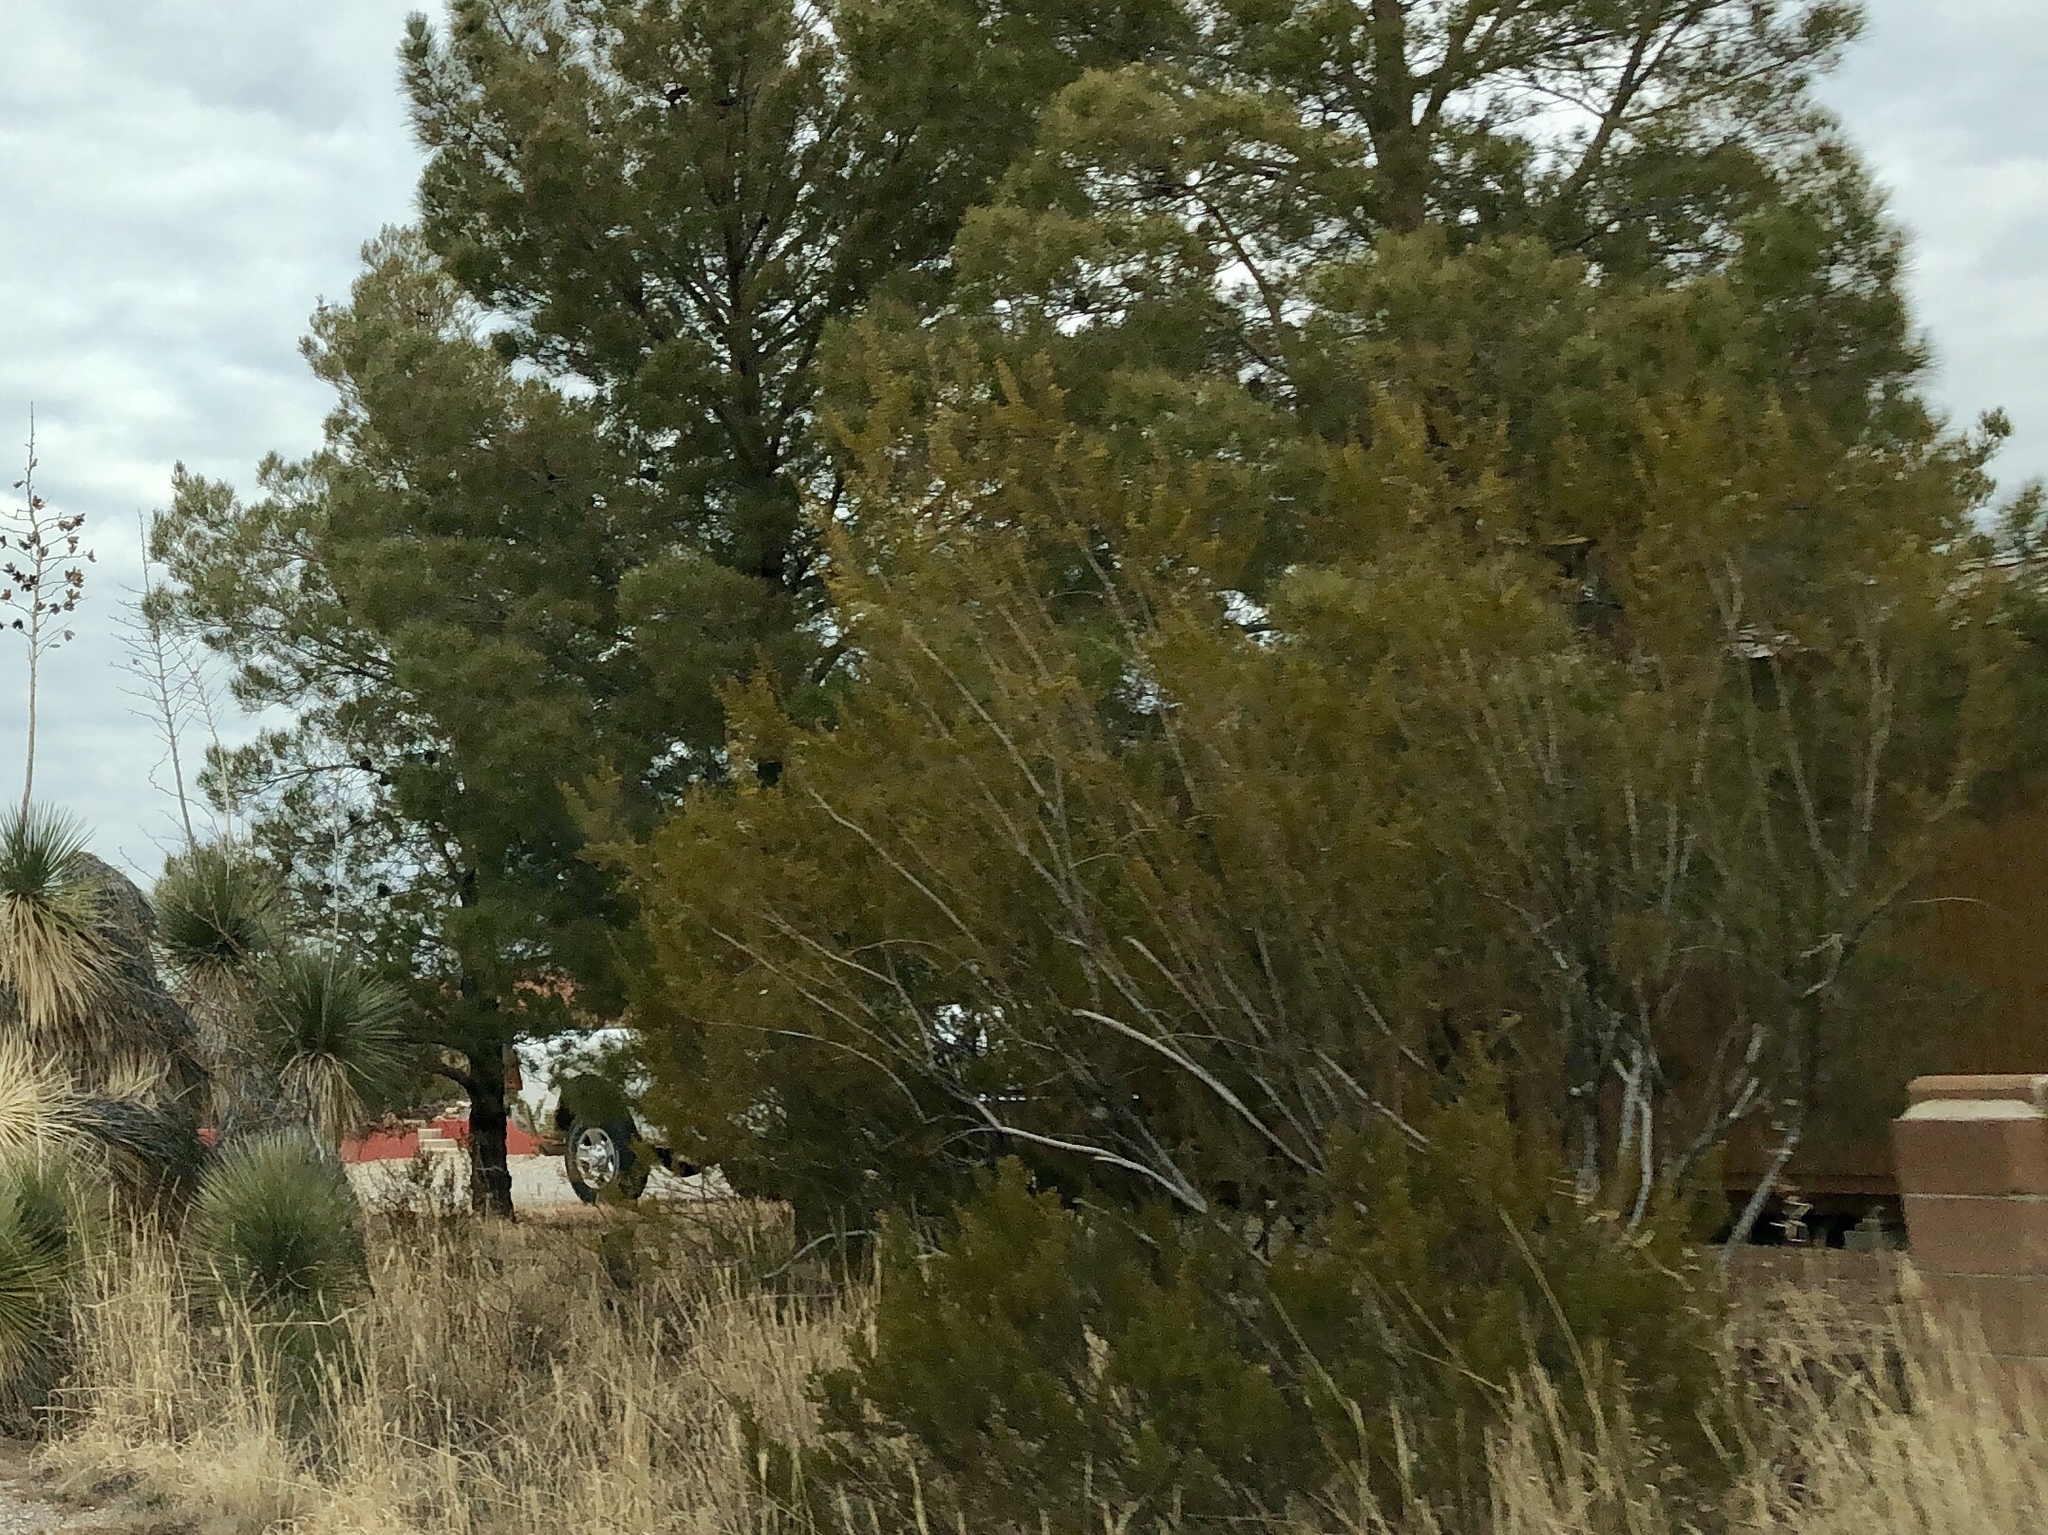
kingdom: Plantae
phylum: Tracheophyta
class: Magnoliopsida
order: Zygophyllales
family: Zygophyllaceae
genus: Larrea
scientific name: Larrea tridentata
